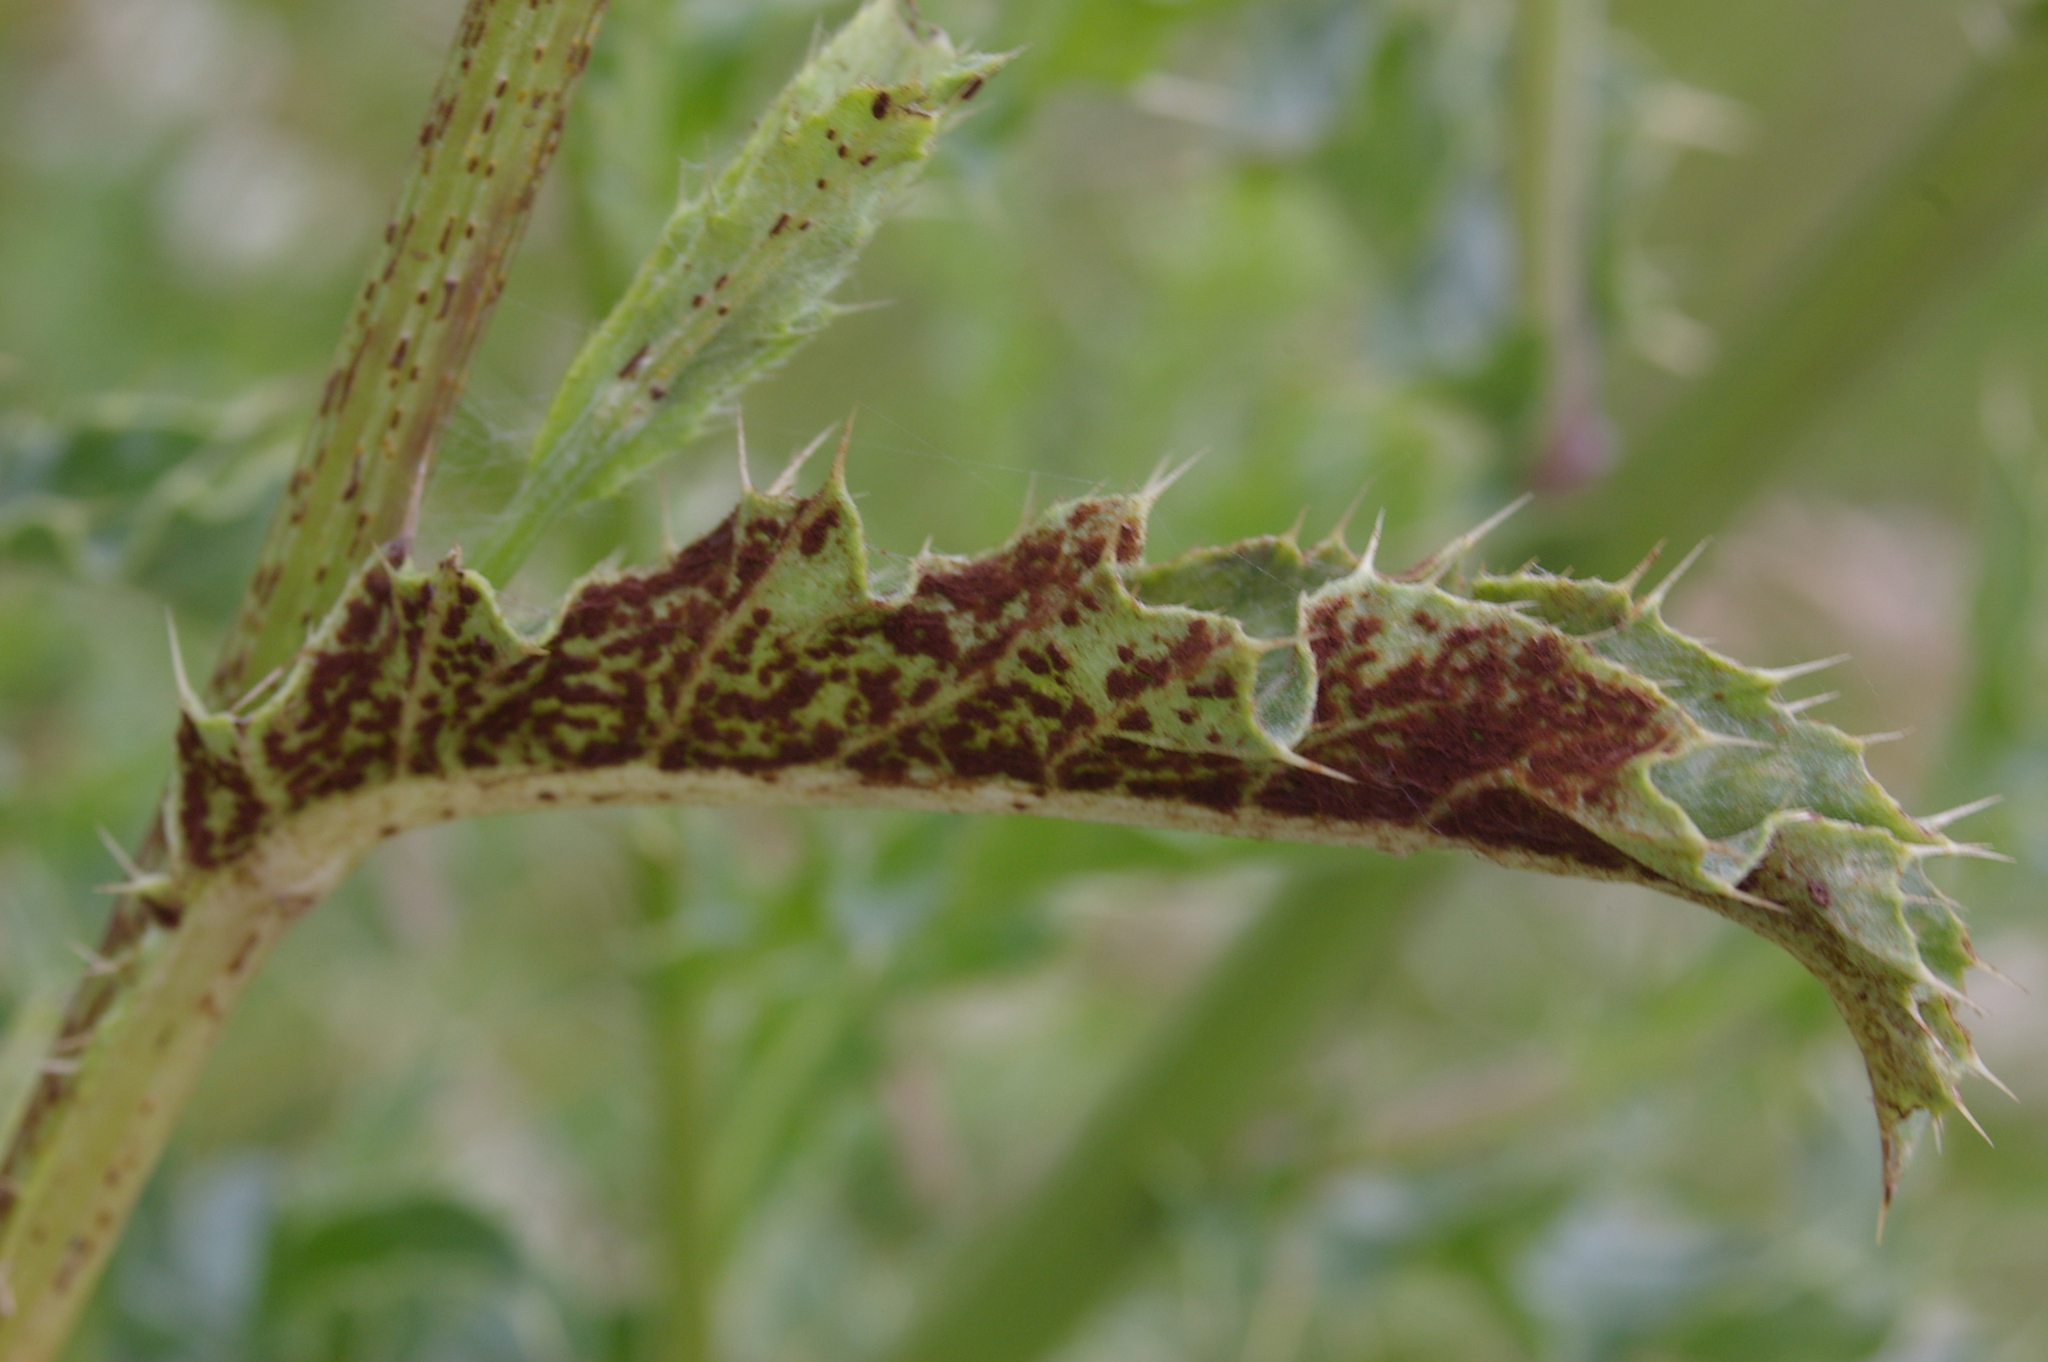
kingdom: Fungi
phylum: Basidiomycota
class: Pucciniomycetes
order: Pucciniales
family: Pucciniaceae
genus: Puccinia
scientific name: Puccinia suaveolens
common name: Thistle rust
